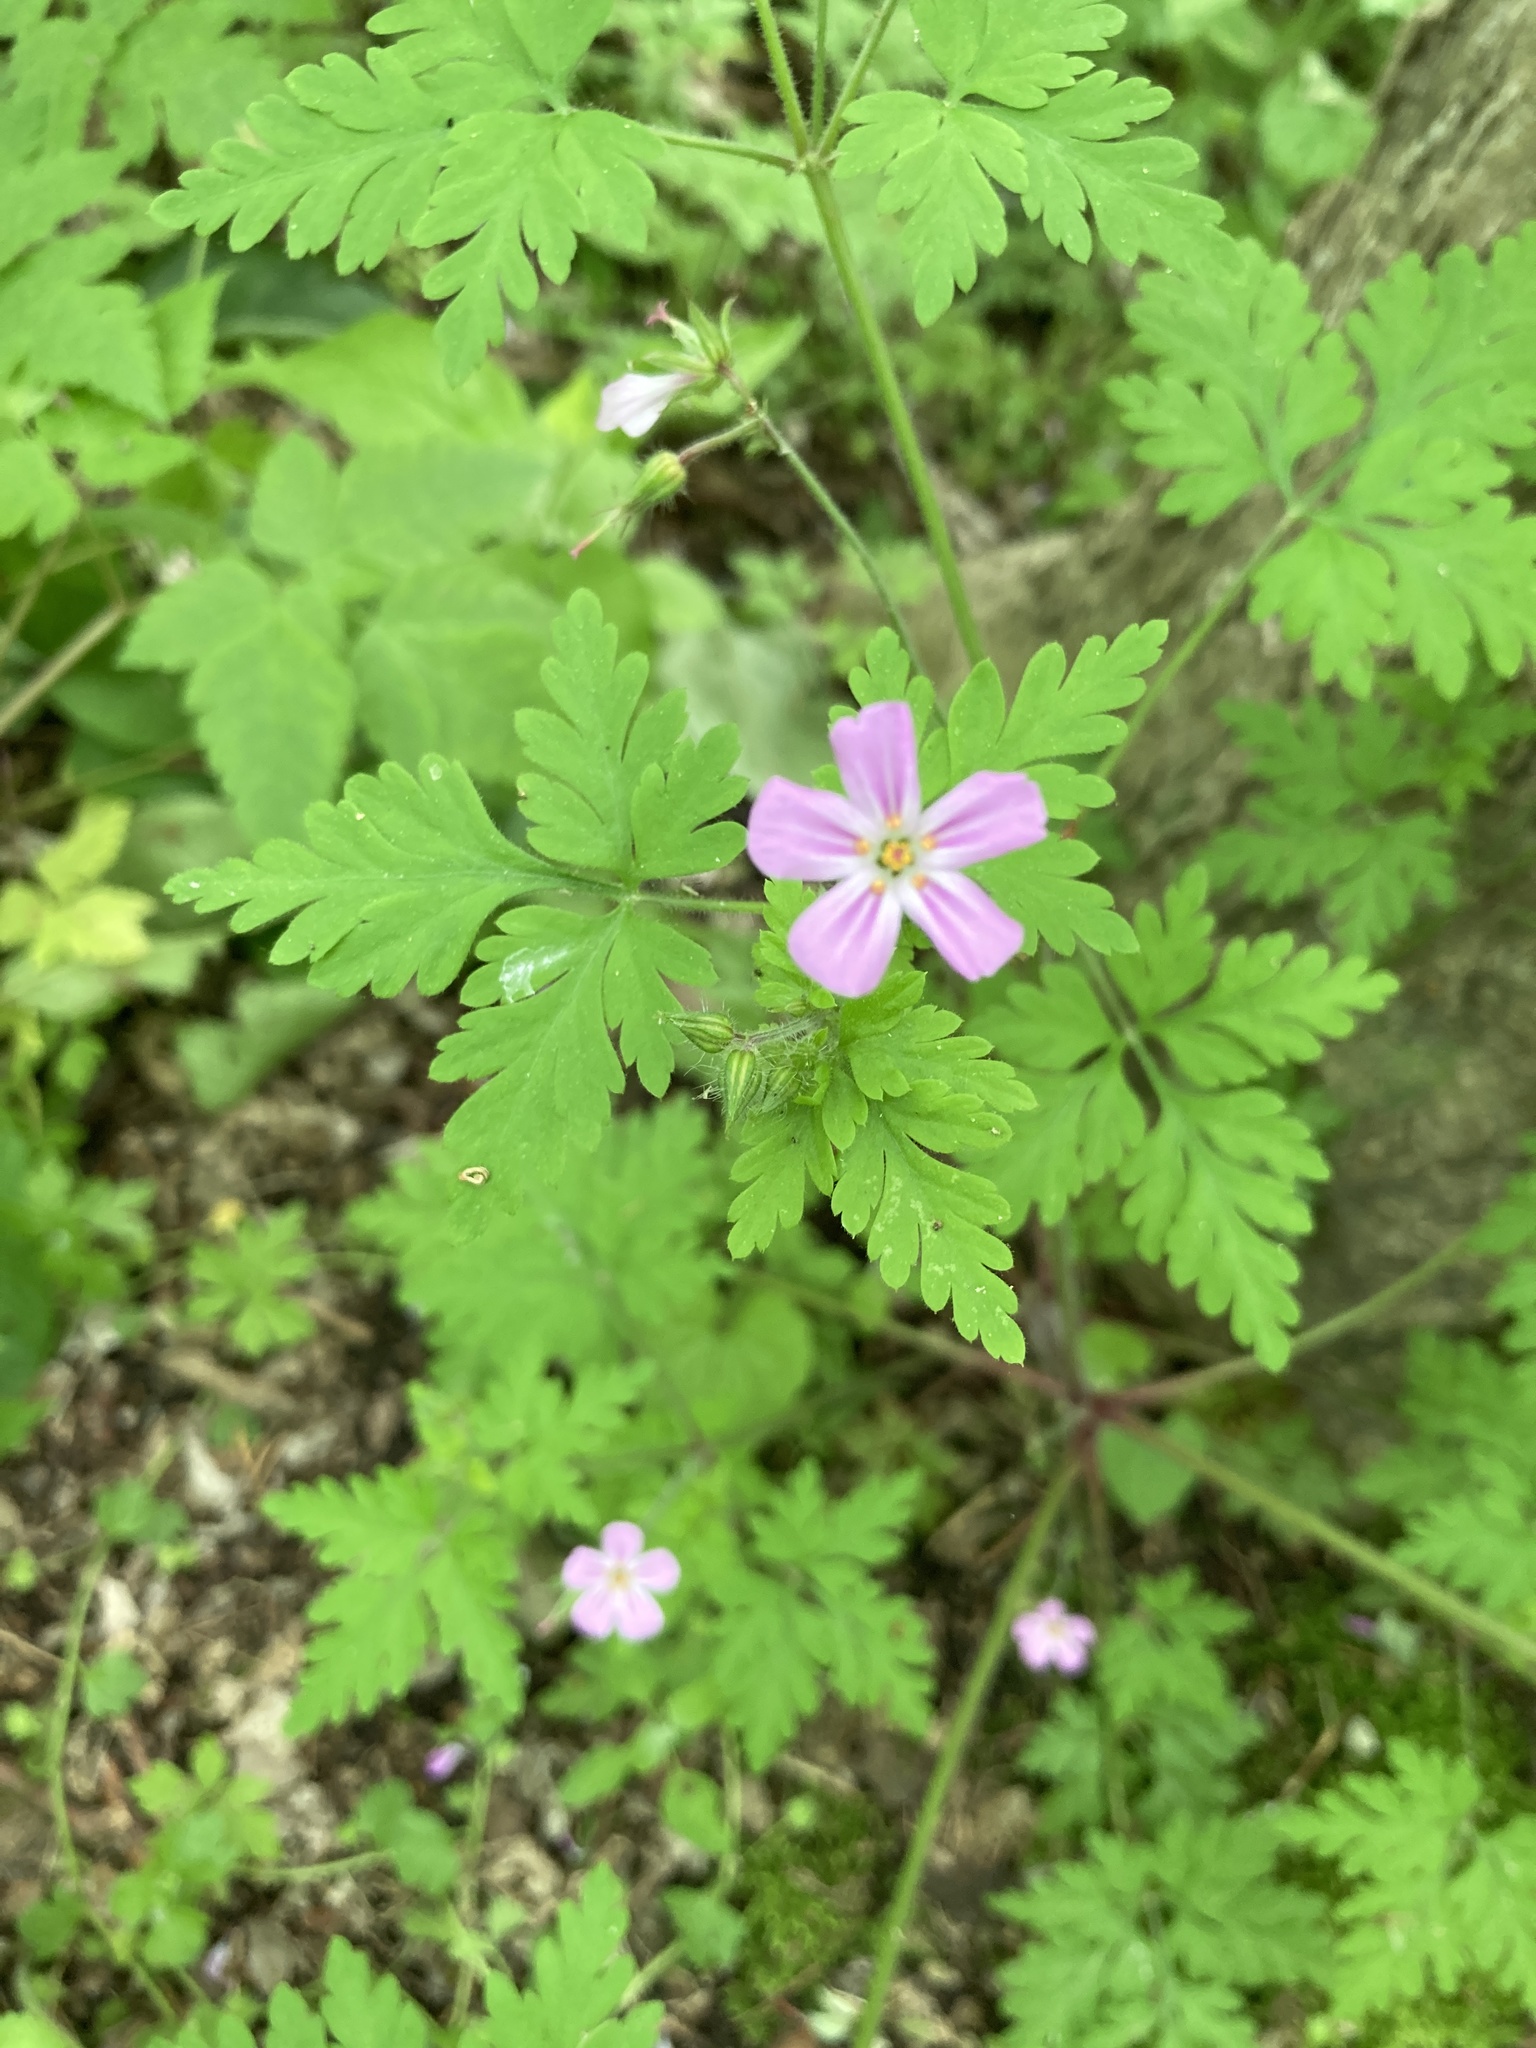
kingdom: Plantae
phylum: Tracheophyta
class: Magnoliopsida
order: Geraniales
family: Geraniaceae
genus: Geranium
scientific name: Geranium robertianum
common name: Herb-robert
